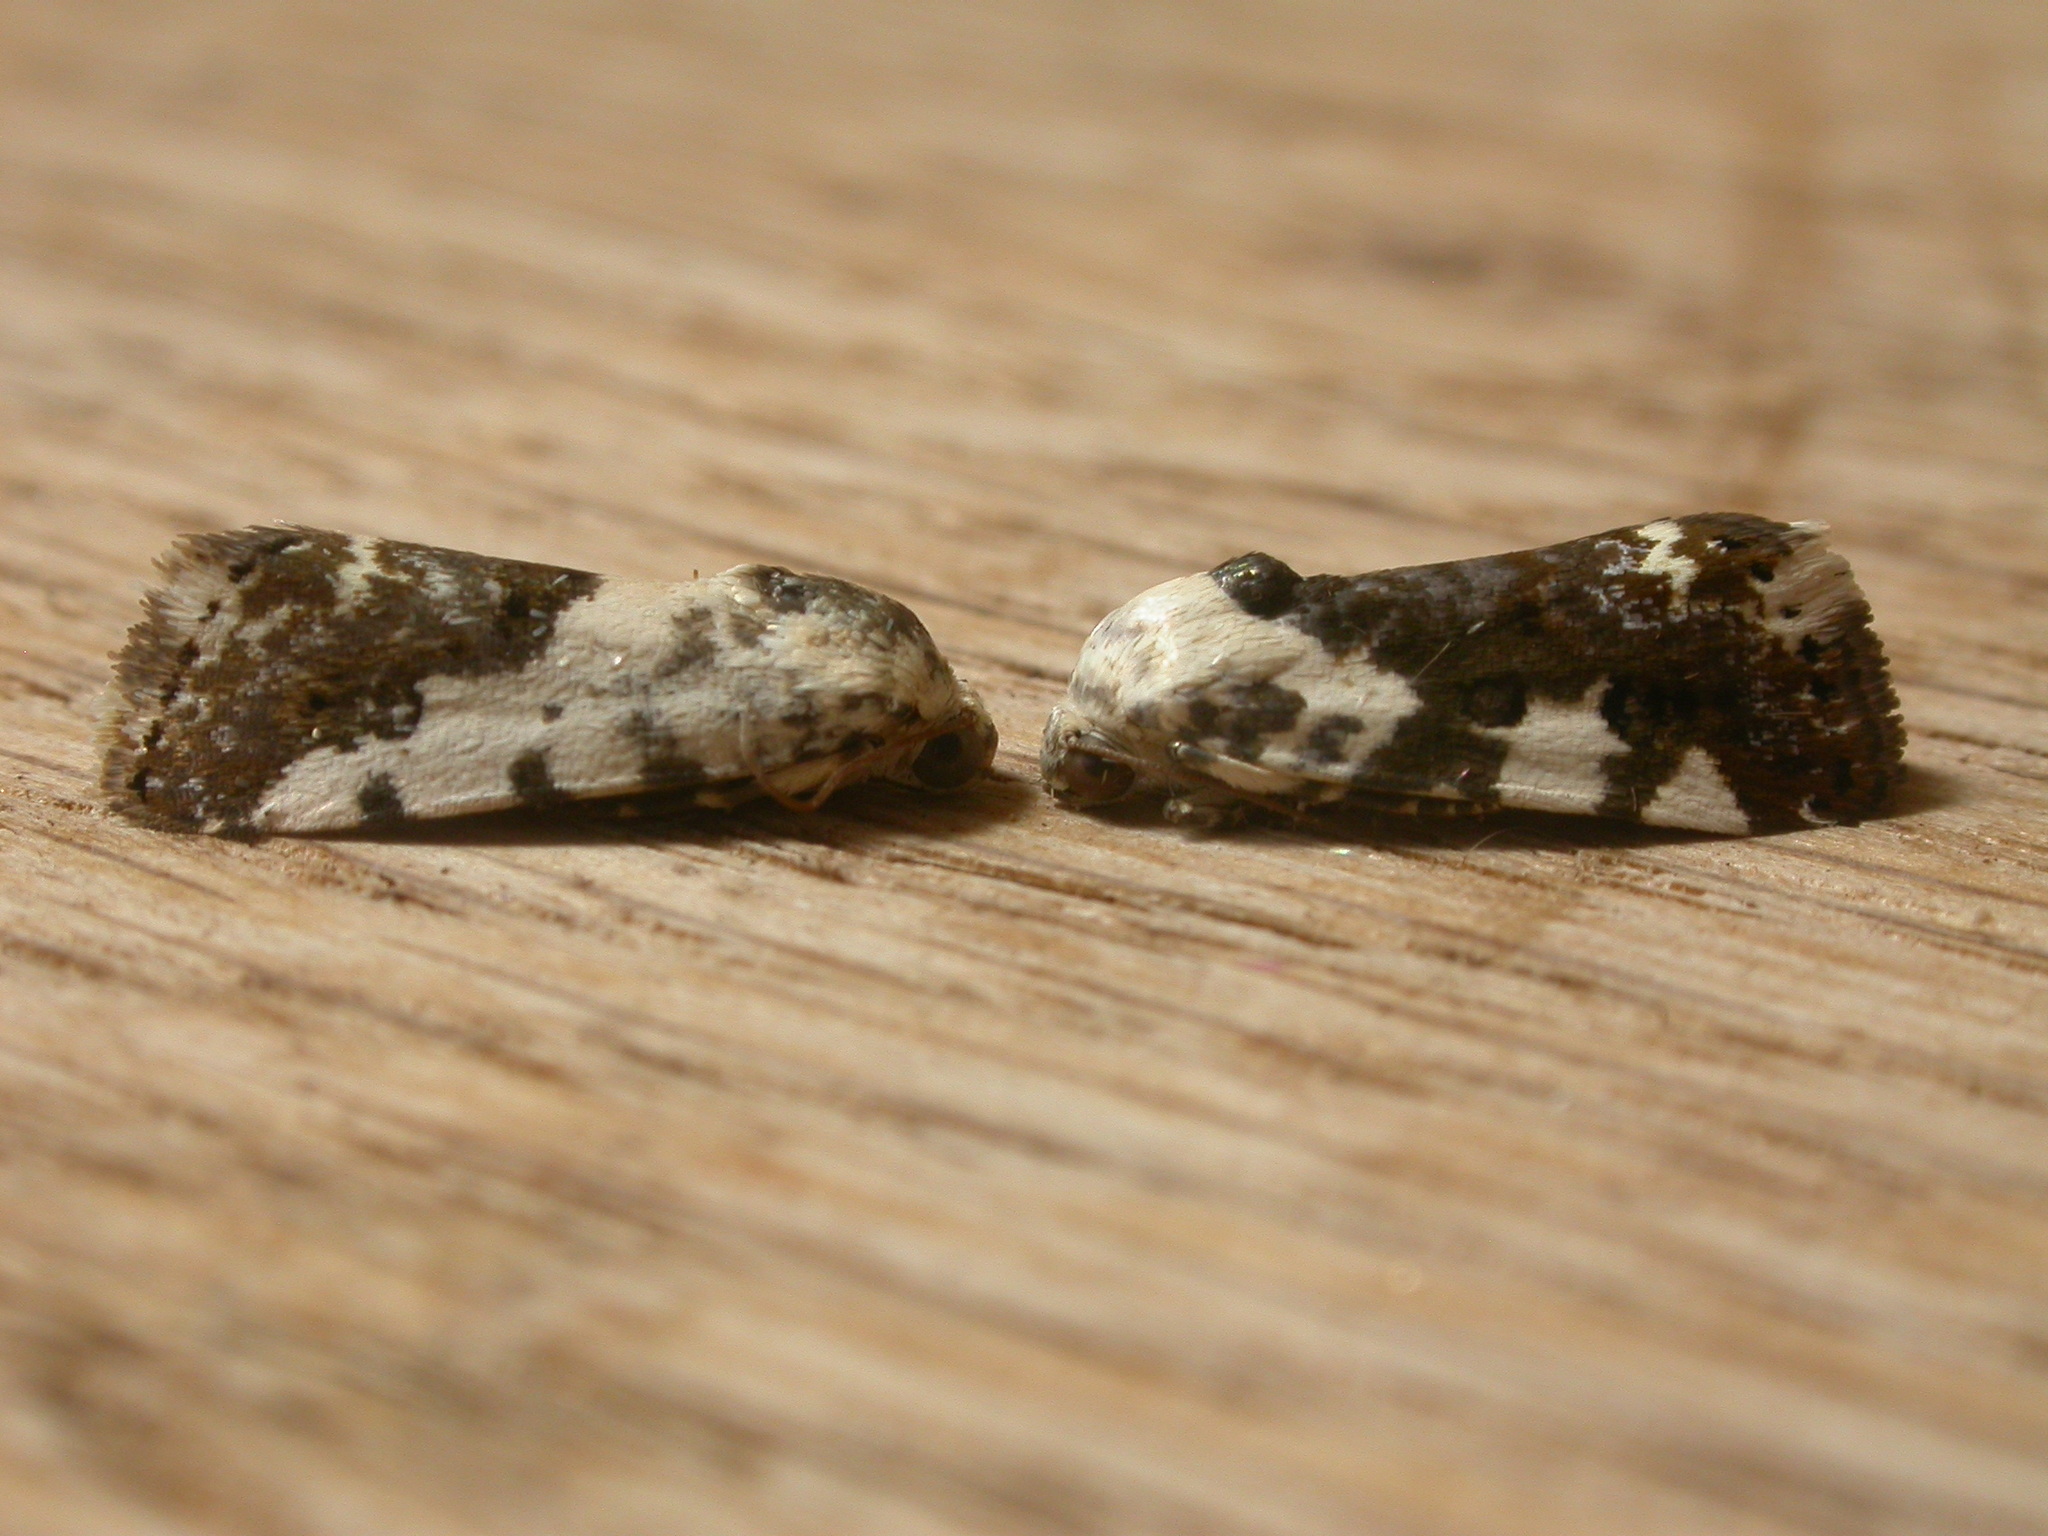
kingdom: Animalia
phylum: Arthropoda
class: Insecta
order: Lepidoptera
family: Noctuidae
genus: Acontia
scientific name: Acontia nivipicta
